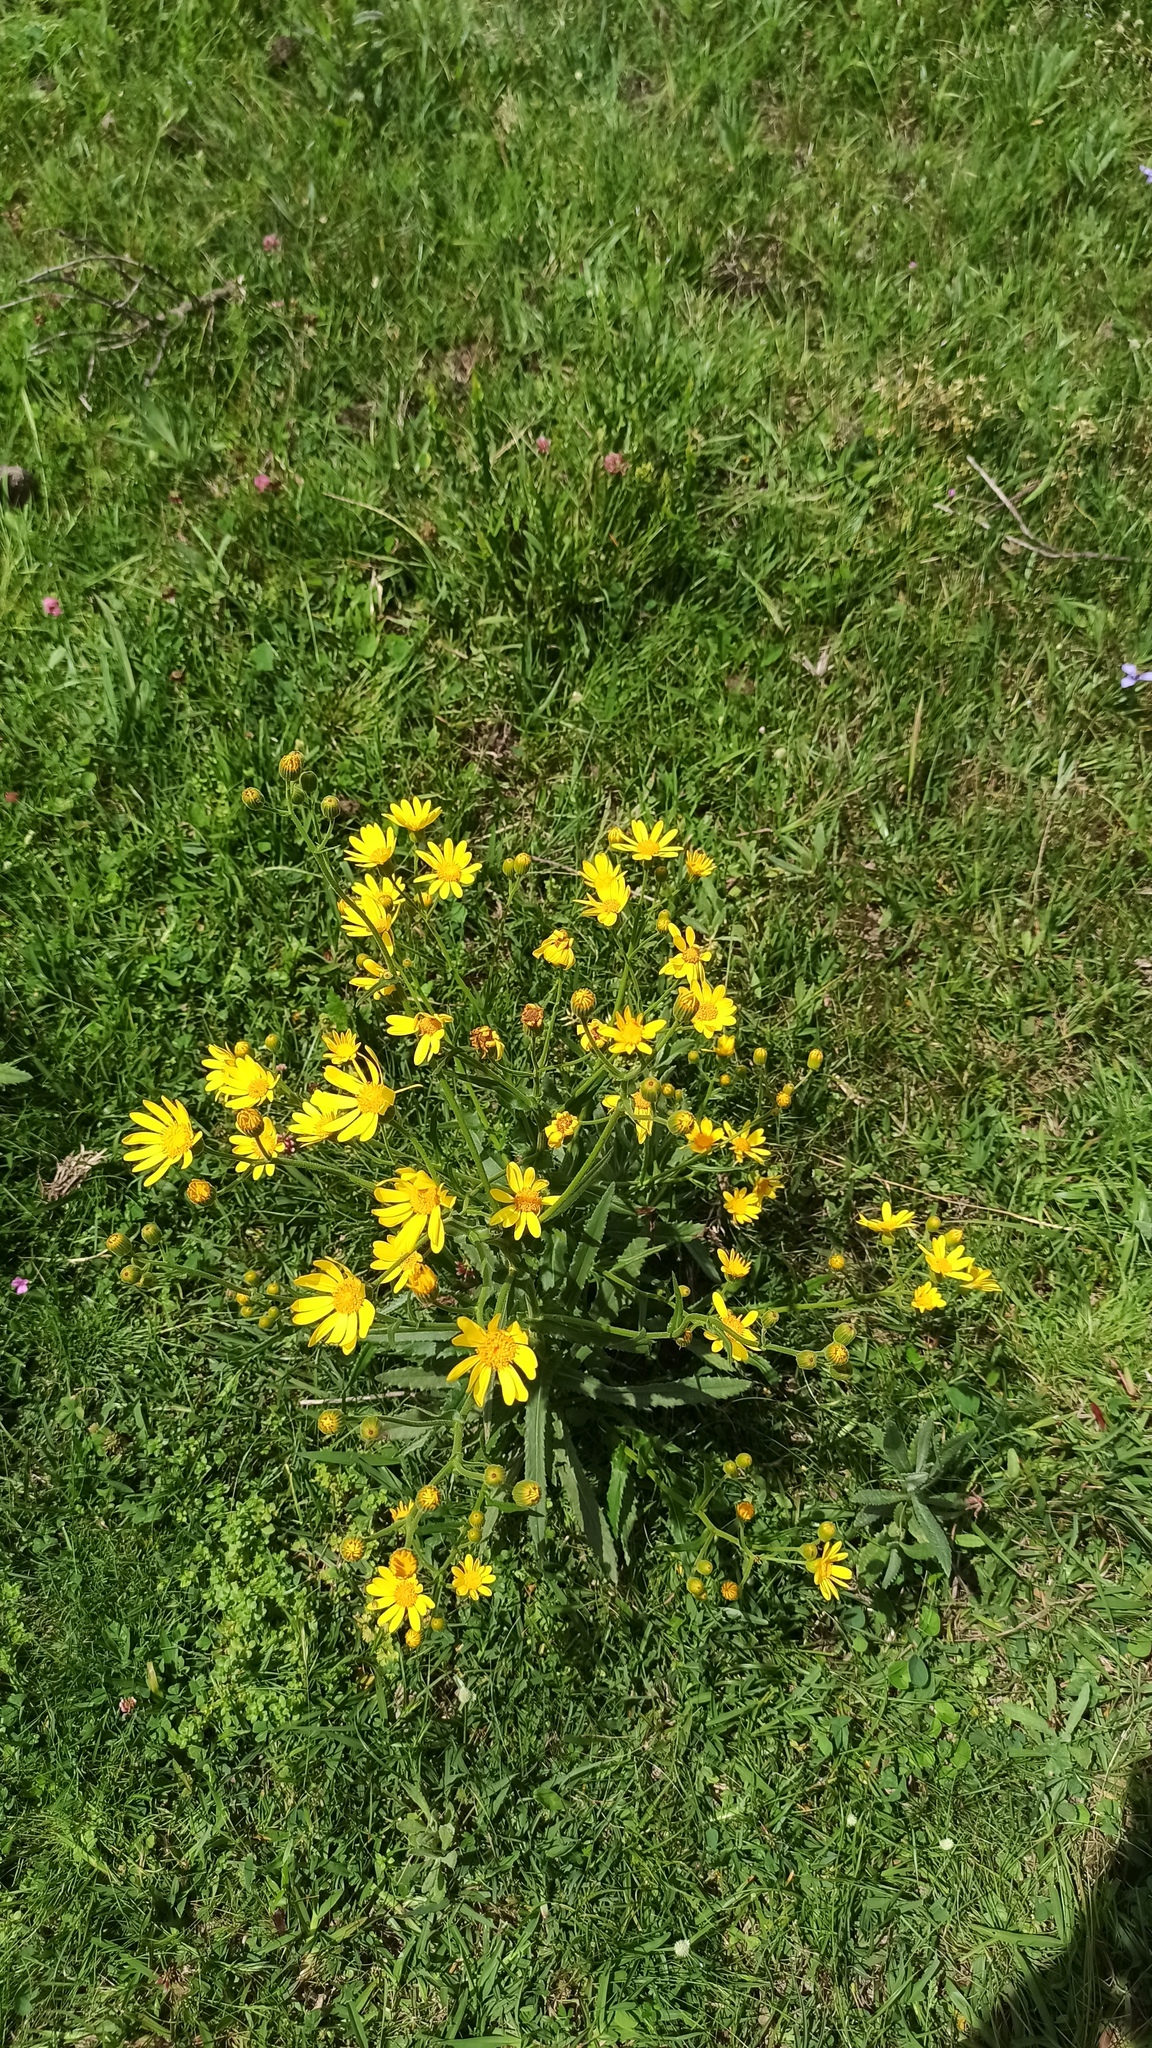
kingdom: Plantae
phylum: Tracheophyta
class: Magnoliopsida
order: Asterales
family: Asteraceae
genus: Senecio
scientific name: Senecio heterotrichius
